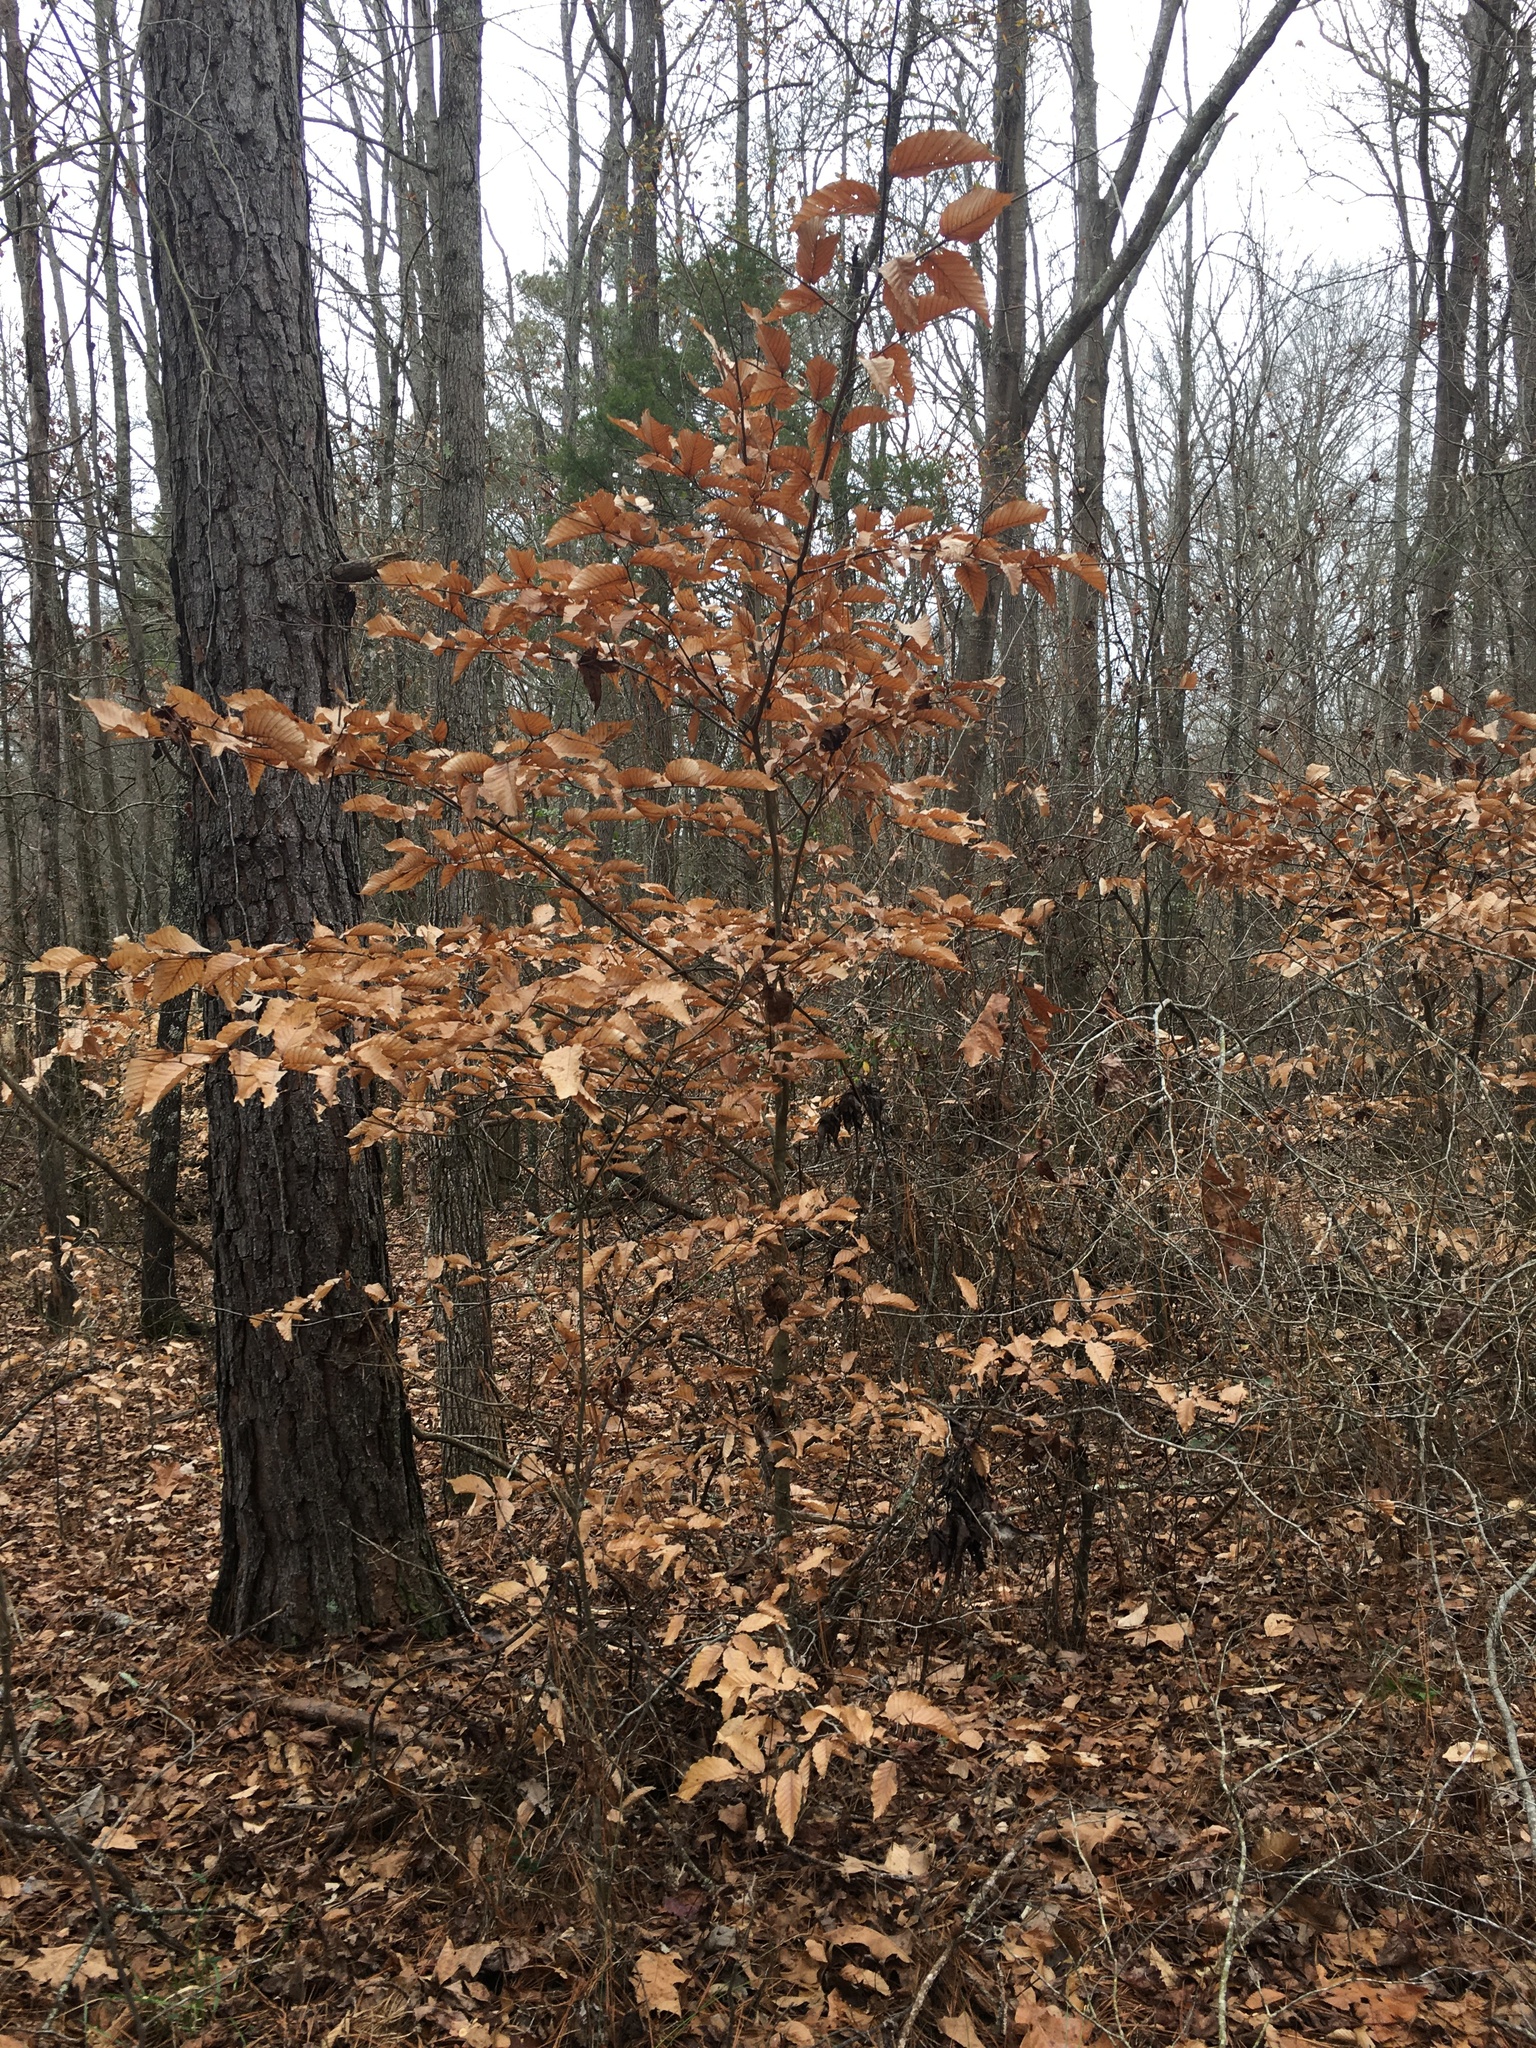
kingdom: Plantae
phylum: Tracheophyta
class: Magnoliopsida
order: Fagales
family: Fagaceae
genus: Fagus
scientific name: Fagus grandifolia
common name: American beech
